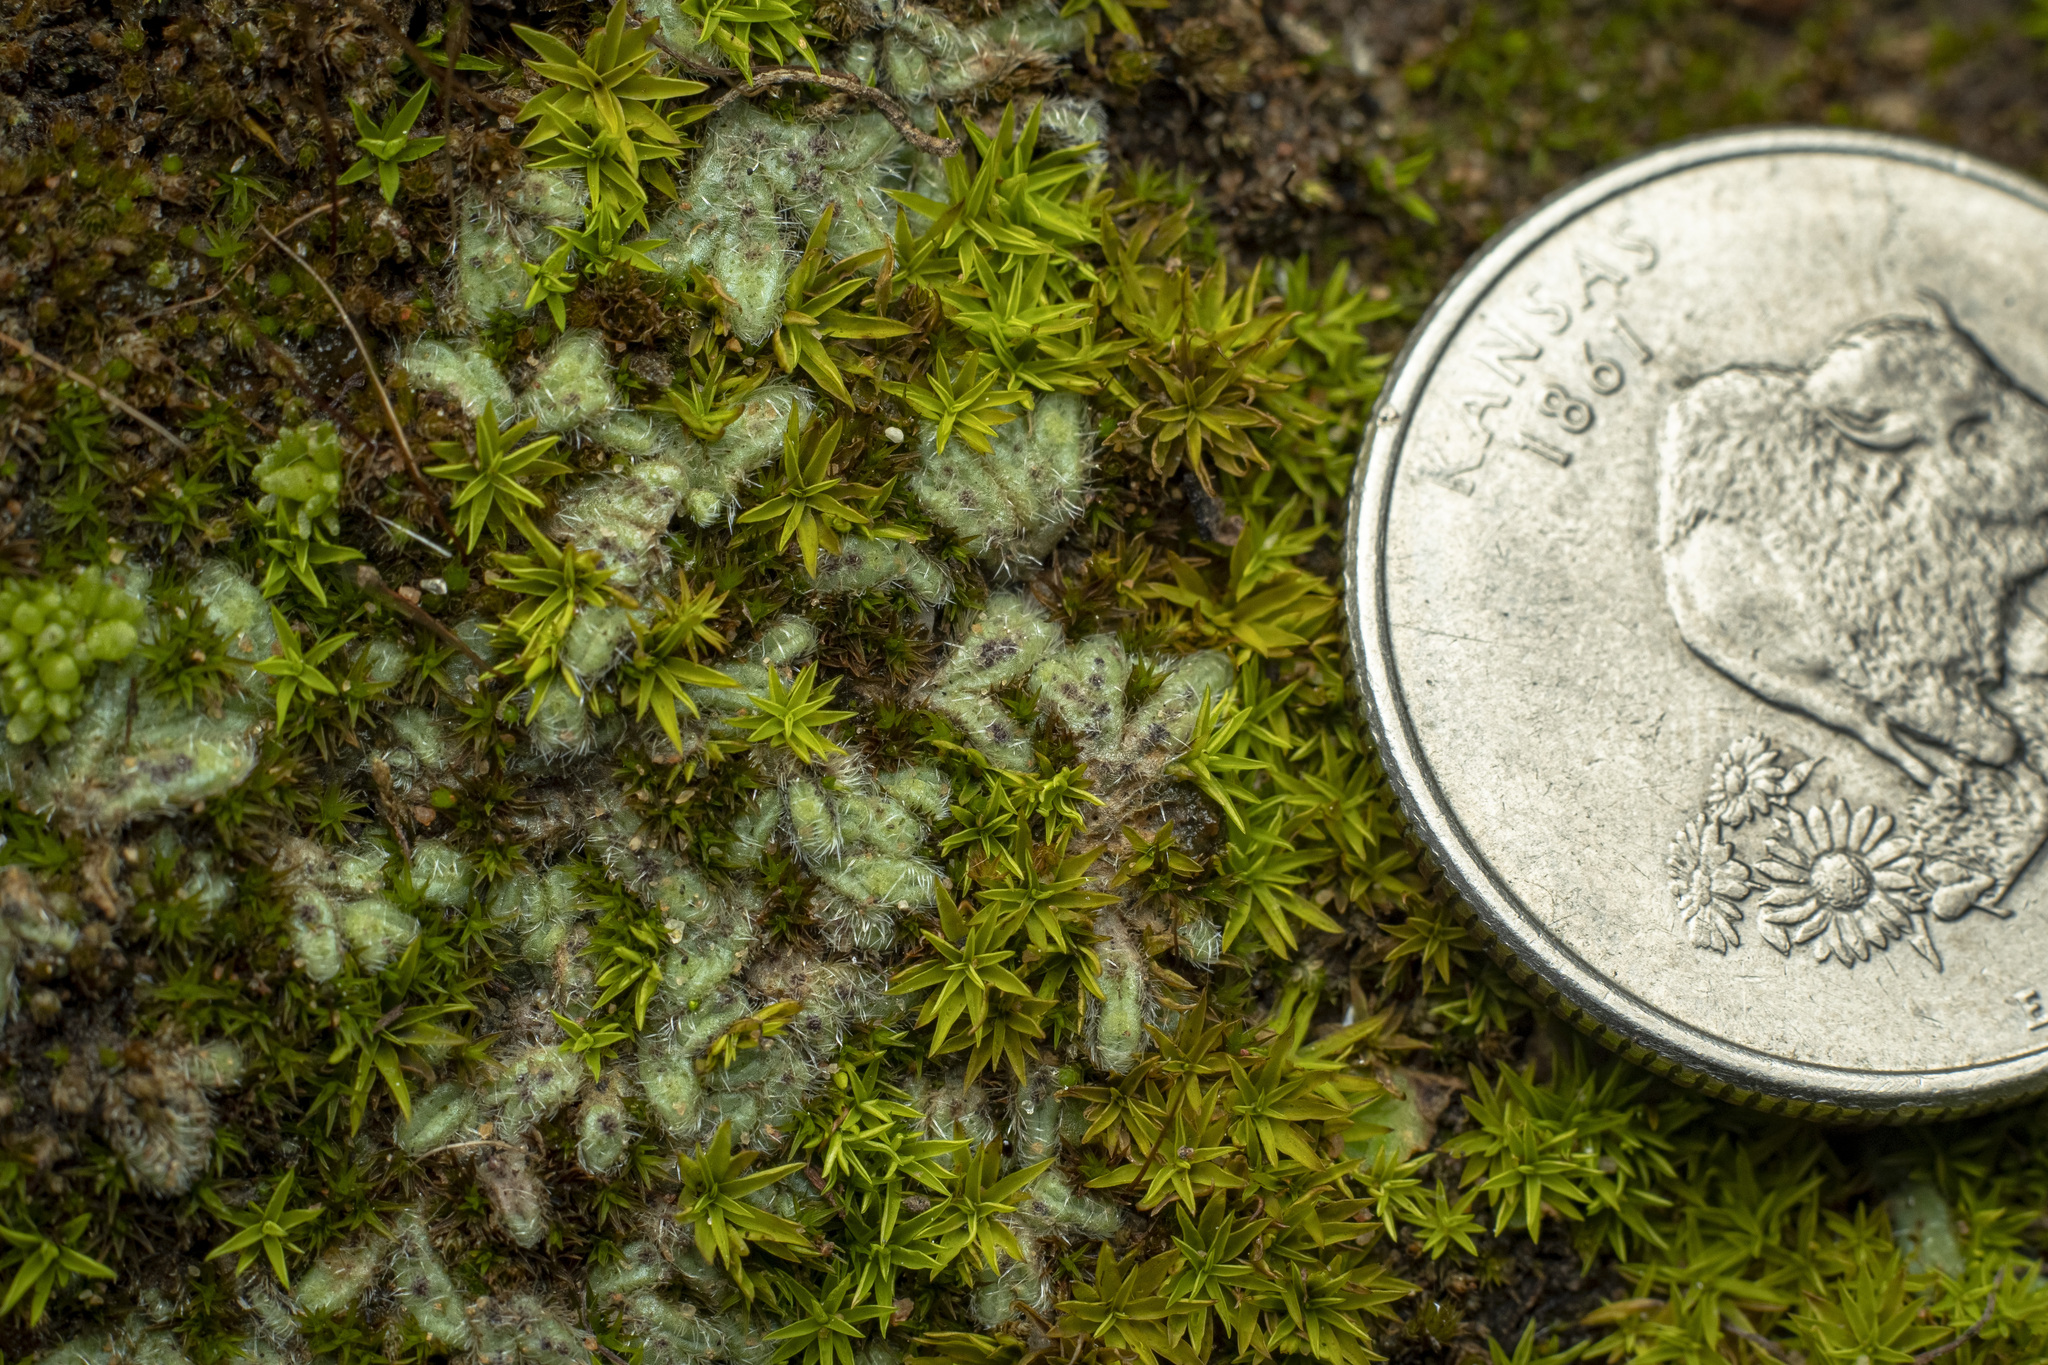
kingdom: Plantae
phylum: Marchantiophyta
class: Marchantiopsida
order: Marchantiales
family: Ricciaceae
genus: Riccia
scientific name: Riccia trichocarpa
